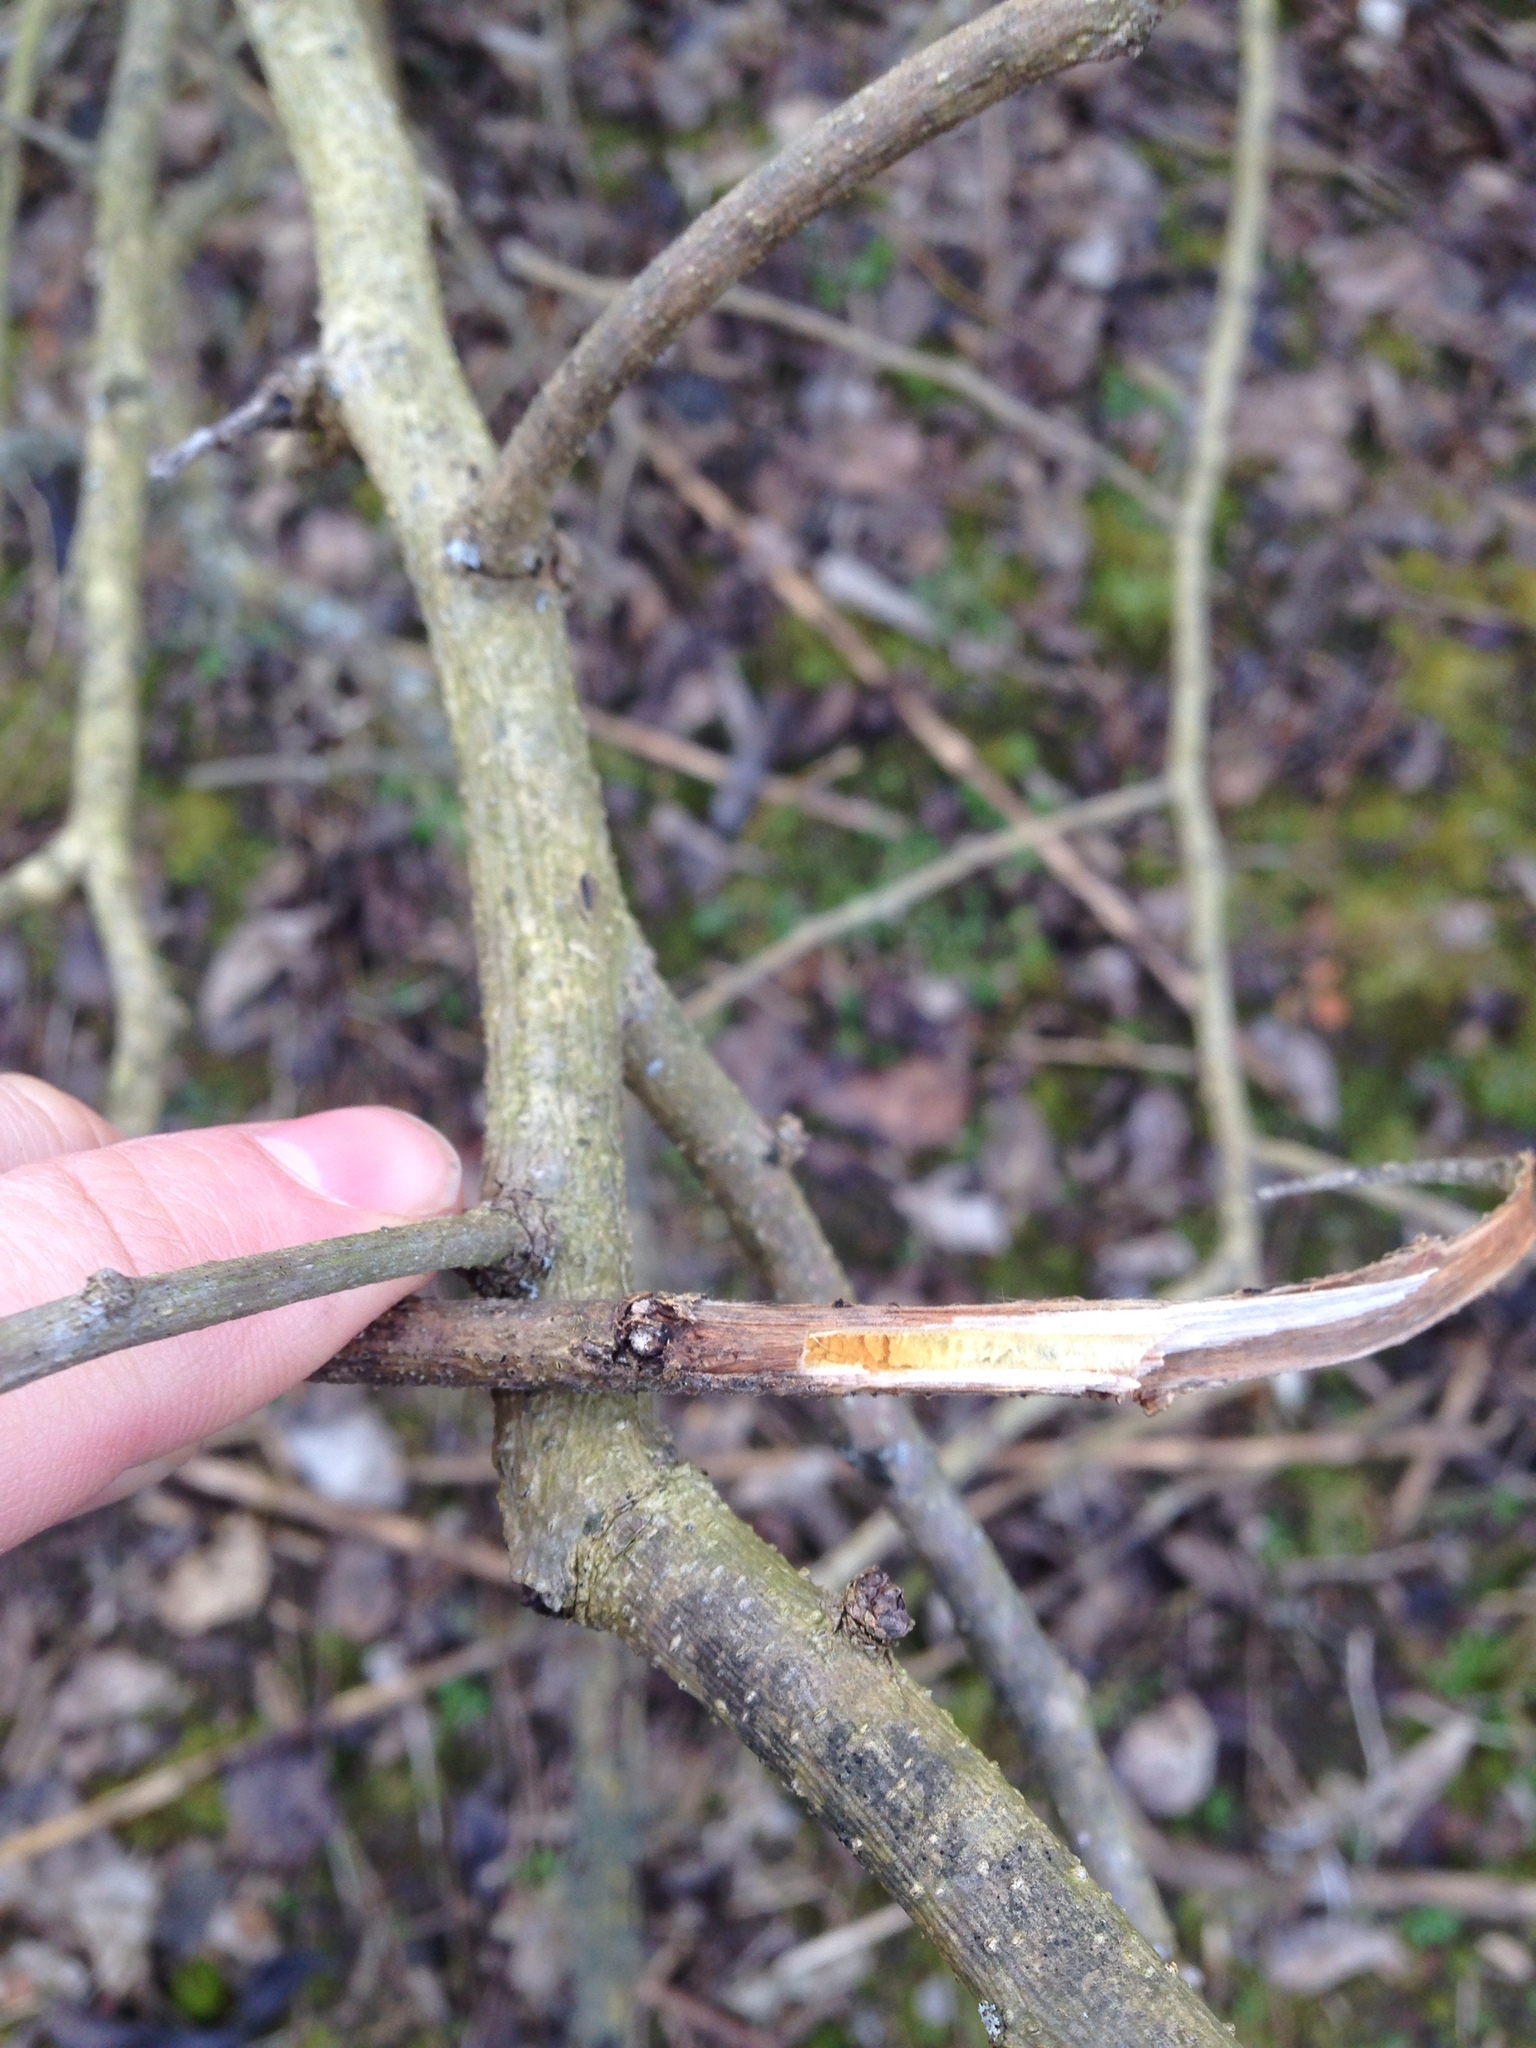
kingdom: Plantae
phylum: Tracheophyta
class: Magnoliopsida
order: Rosales
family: Moraceae
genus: Maclura
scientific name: Maclura pomifera
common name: Osage-orange
